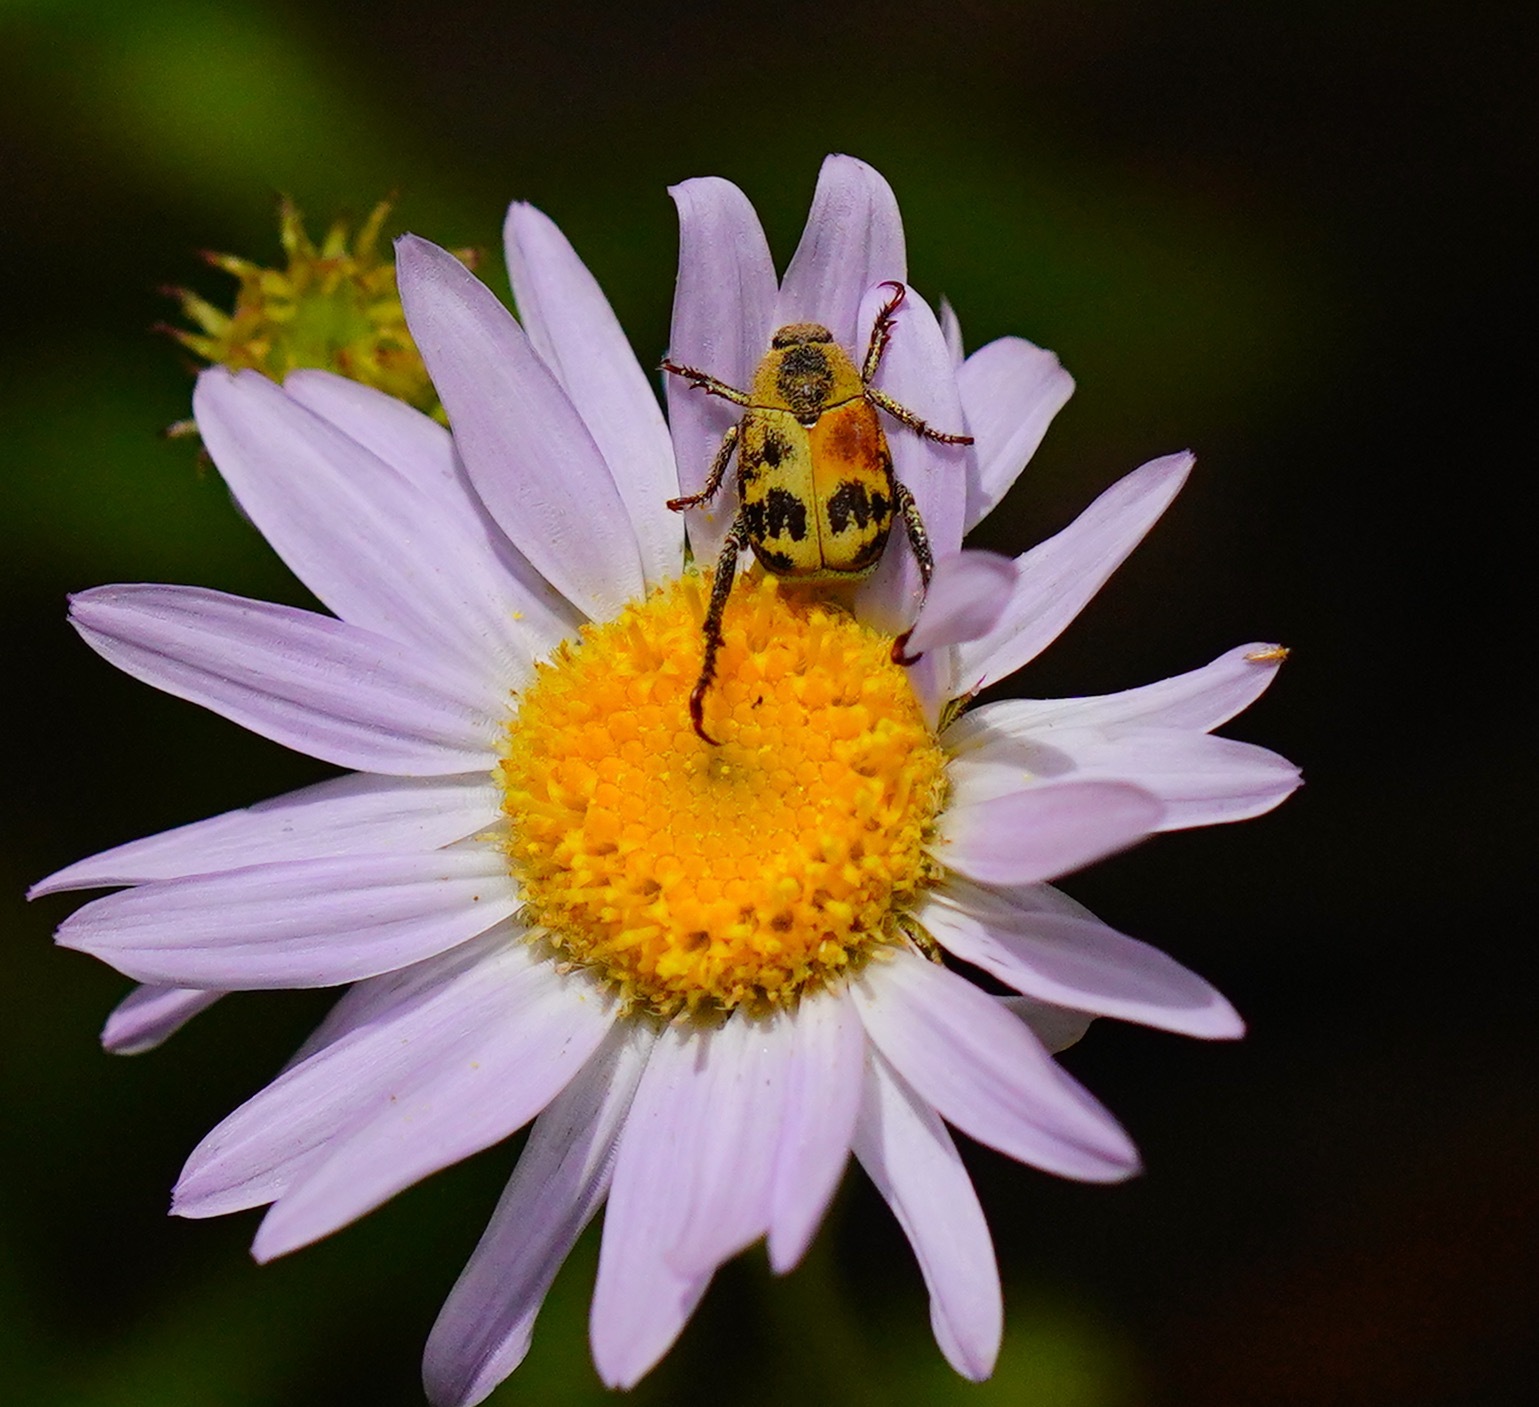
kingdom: Plantae
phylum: Tracheophyta
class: Magnoliopsida
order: Asterales
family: Asteraceae
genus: Erigeron
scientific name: Erigeron glacialis
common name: Subalpine fleabane
